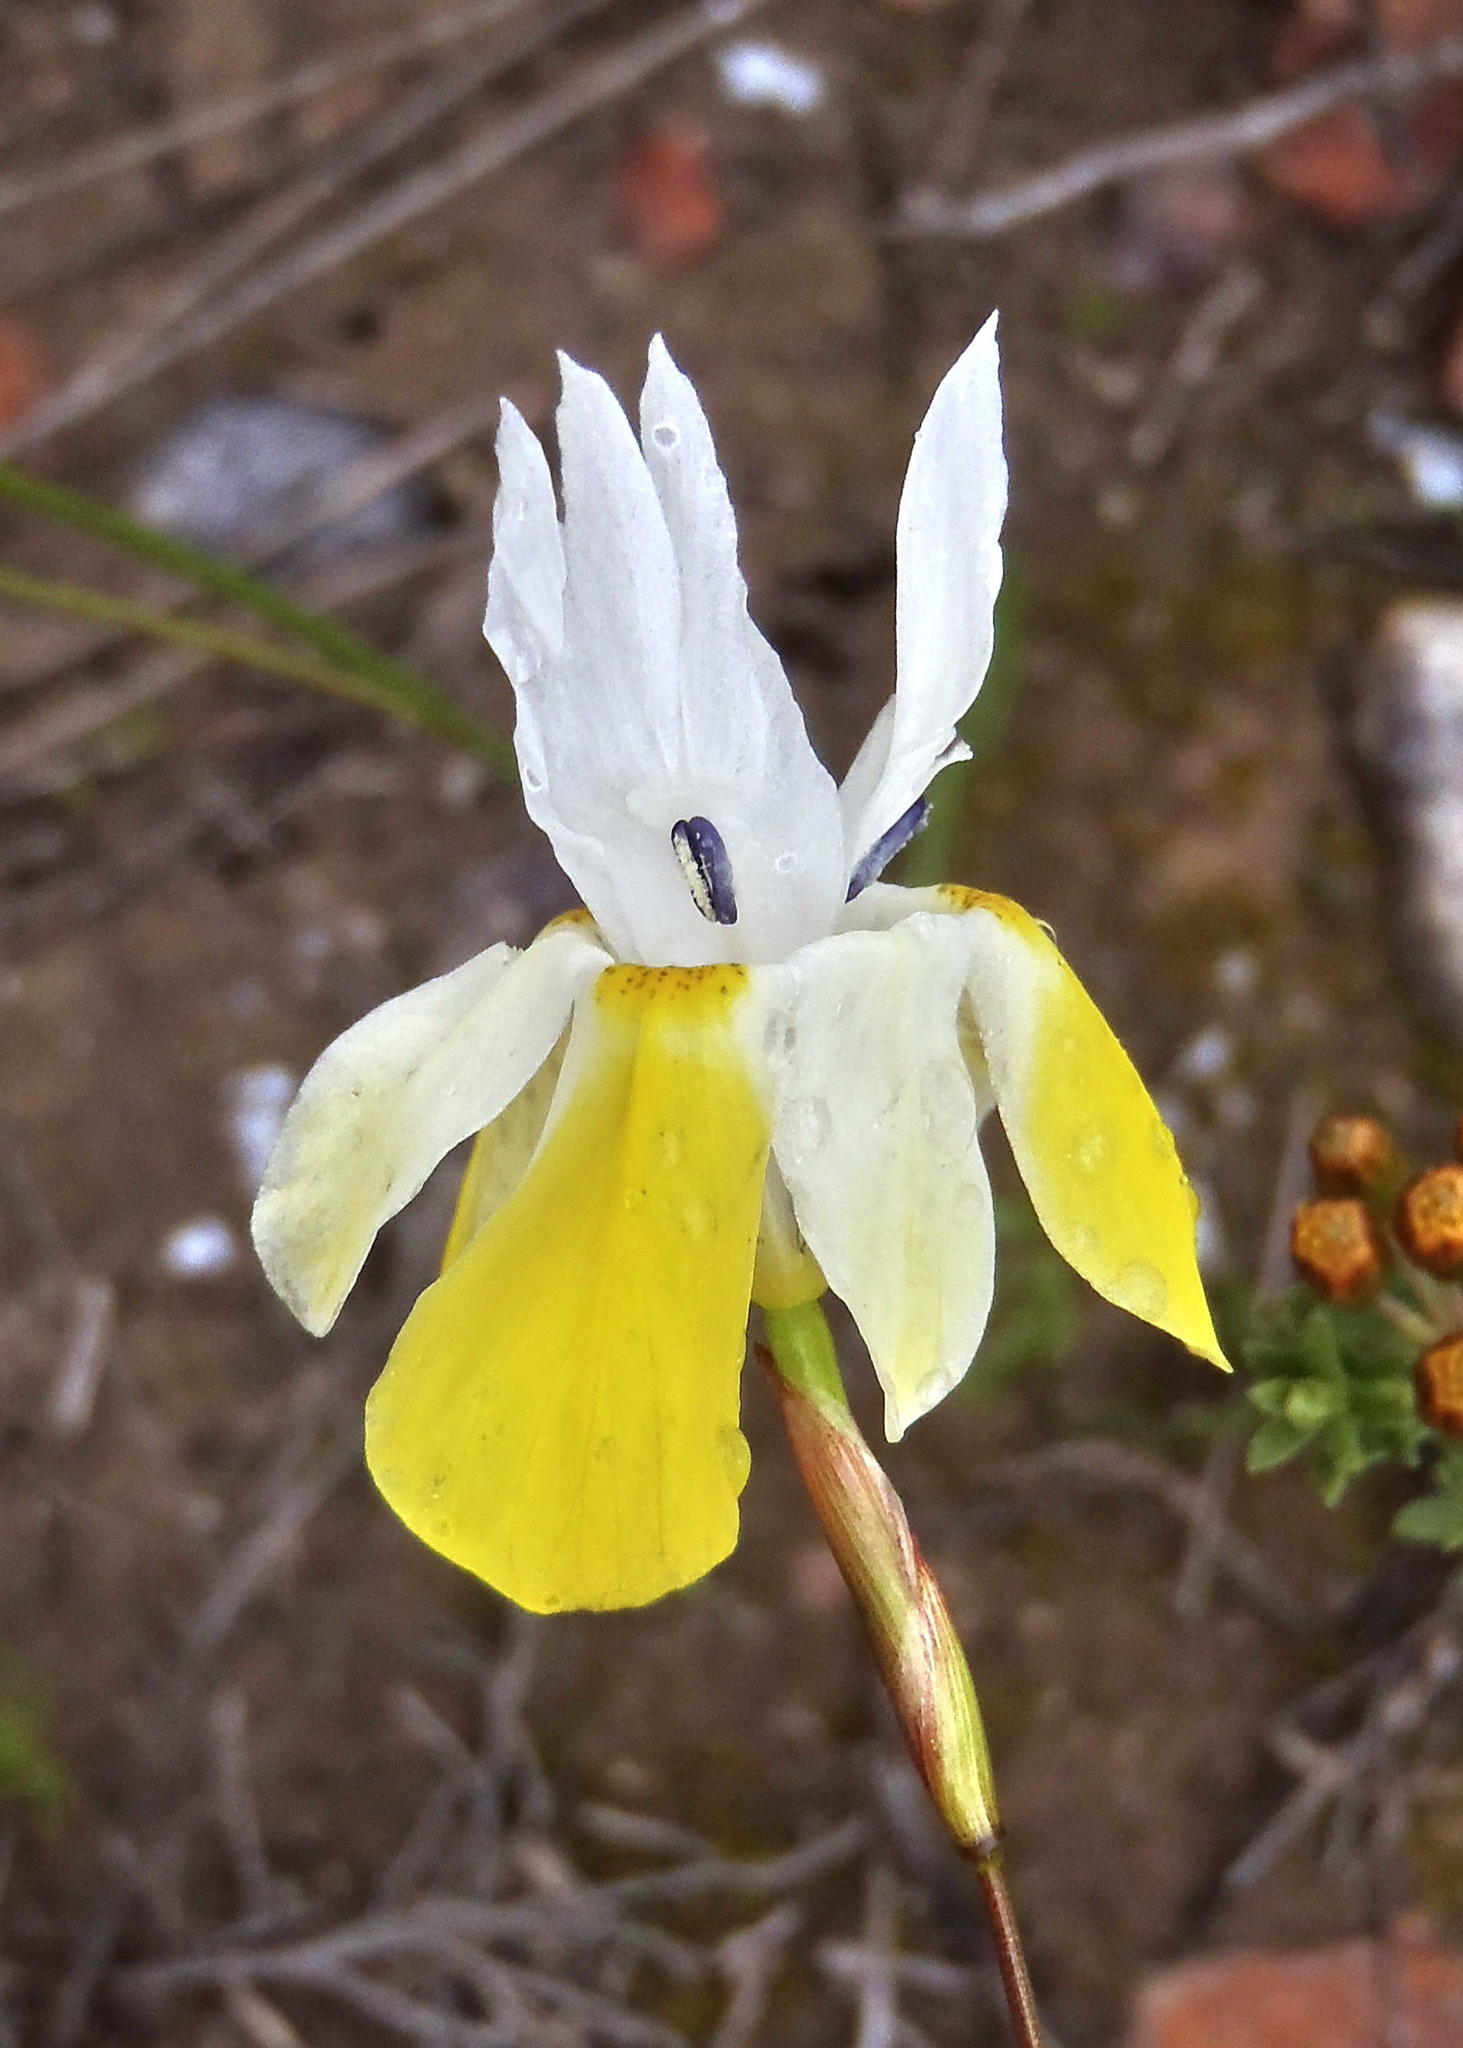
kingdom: Plantae
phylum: Tracheophyta
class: Liliopsida
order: Asparagales
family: Iridaceae
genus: Moraea
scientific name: Moraea gawleri
